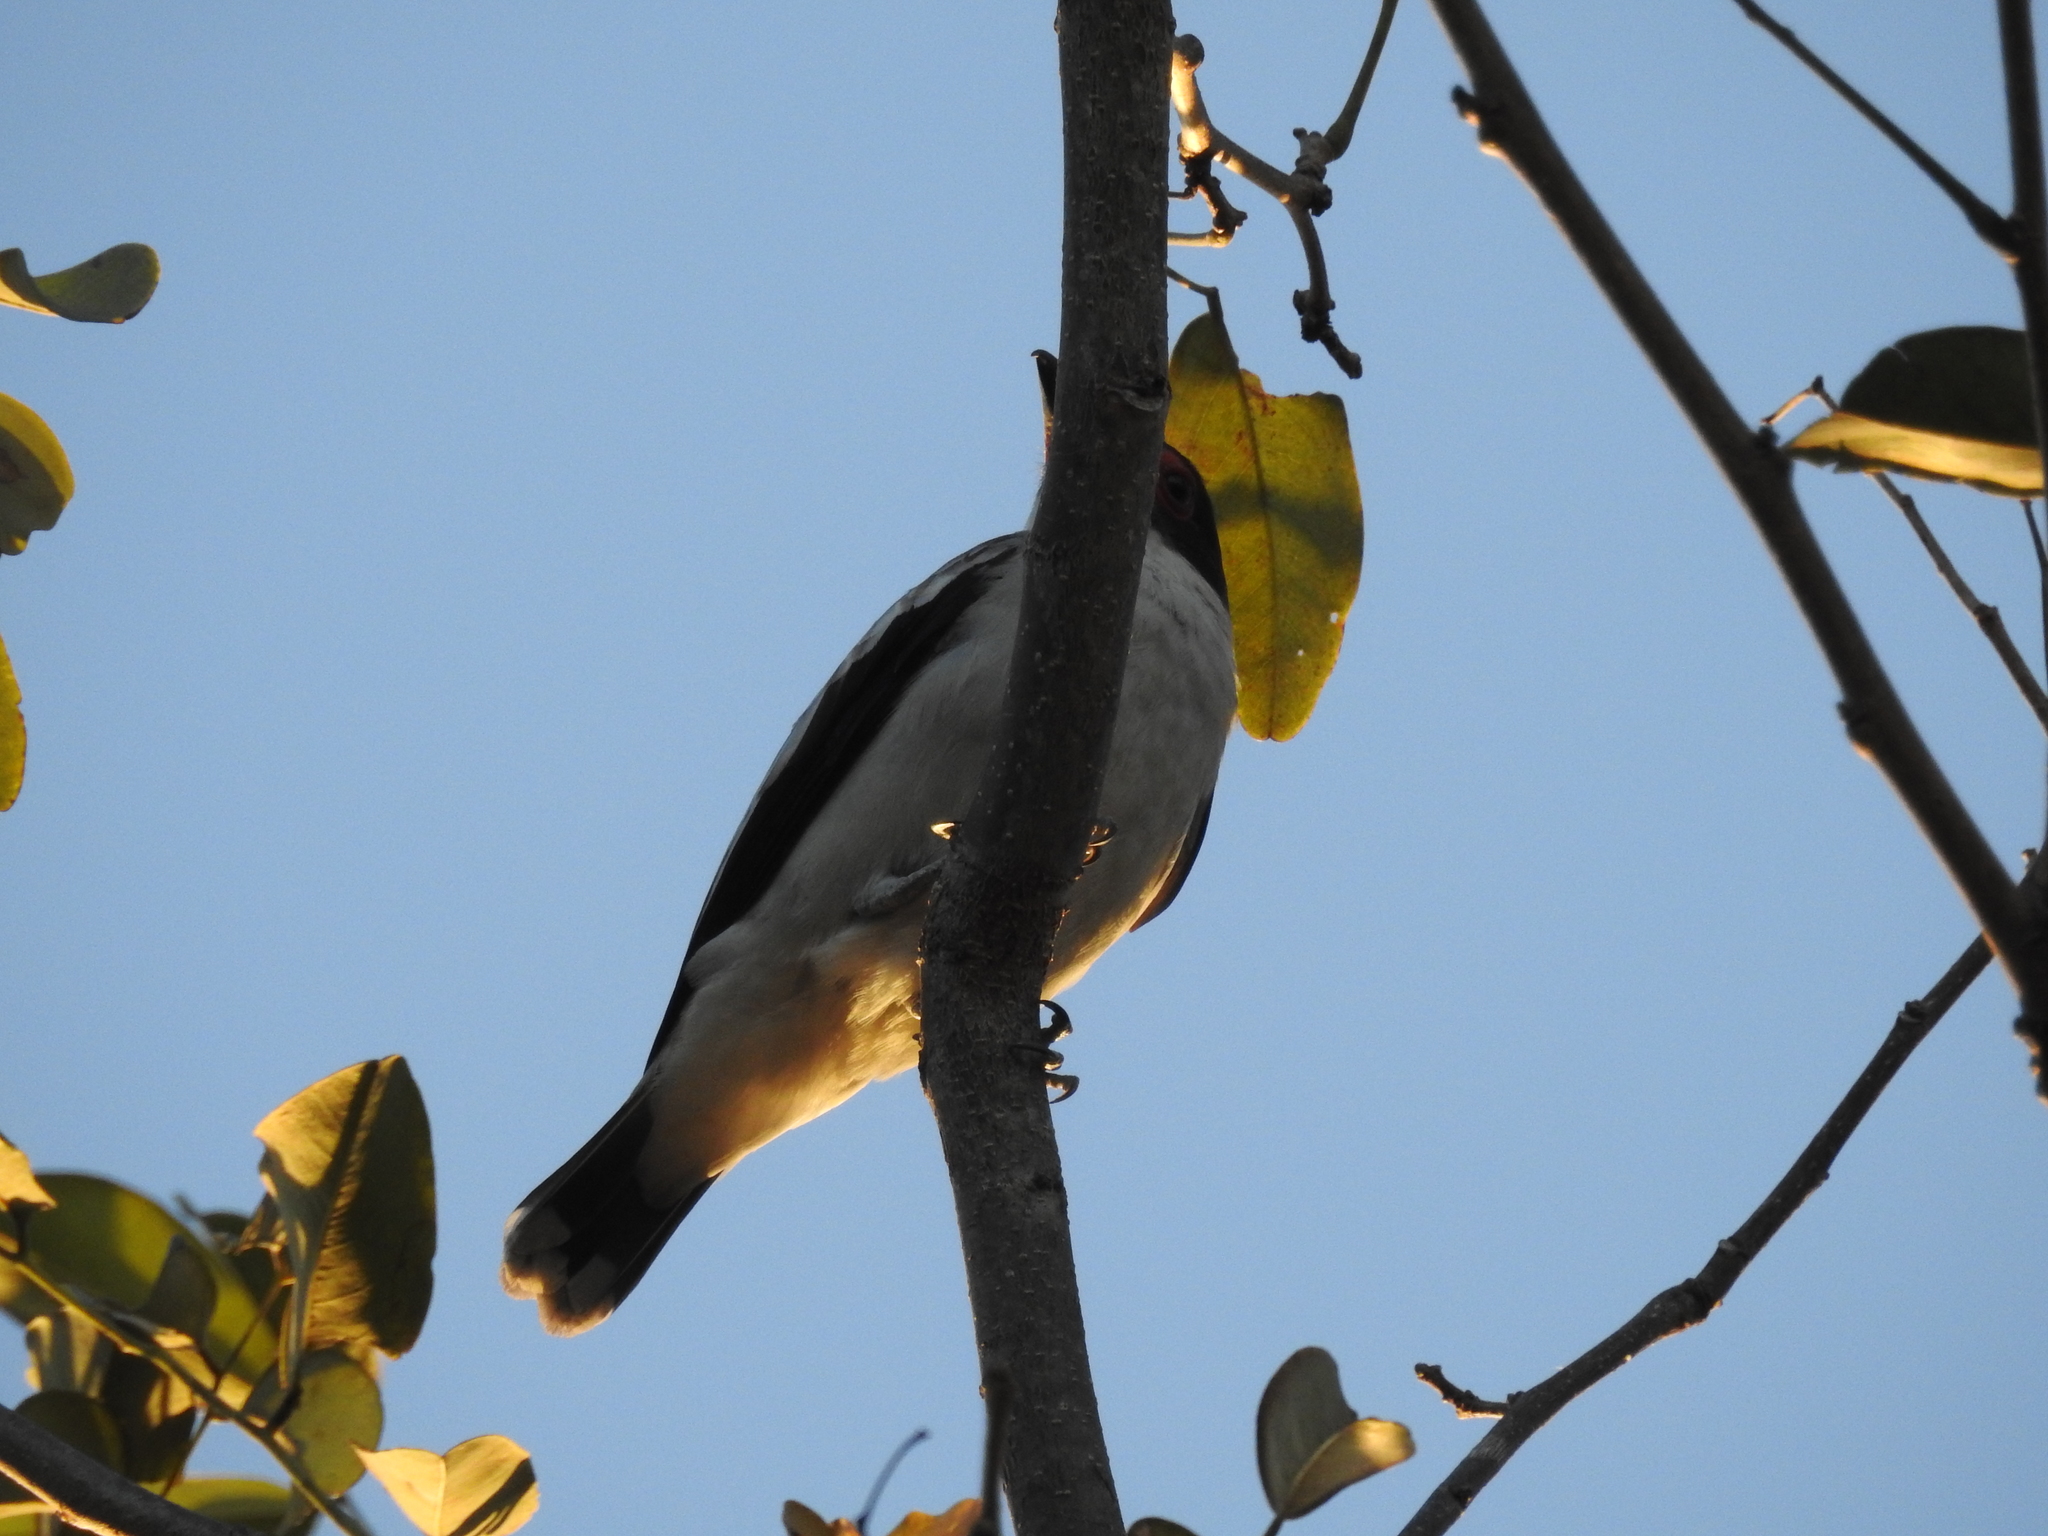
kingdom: Animalia
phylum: Chordata
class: Aves
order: Passeriformes
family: Cotingidae
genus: Tityra
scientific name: Tityra semifasciata
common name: Masked tityra
